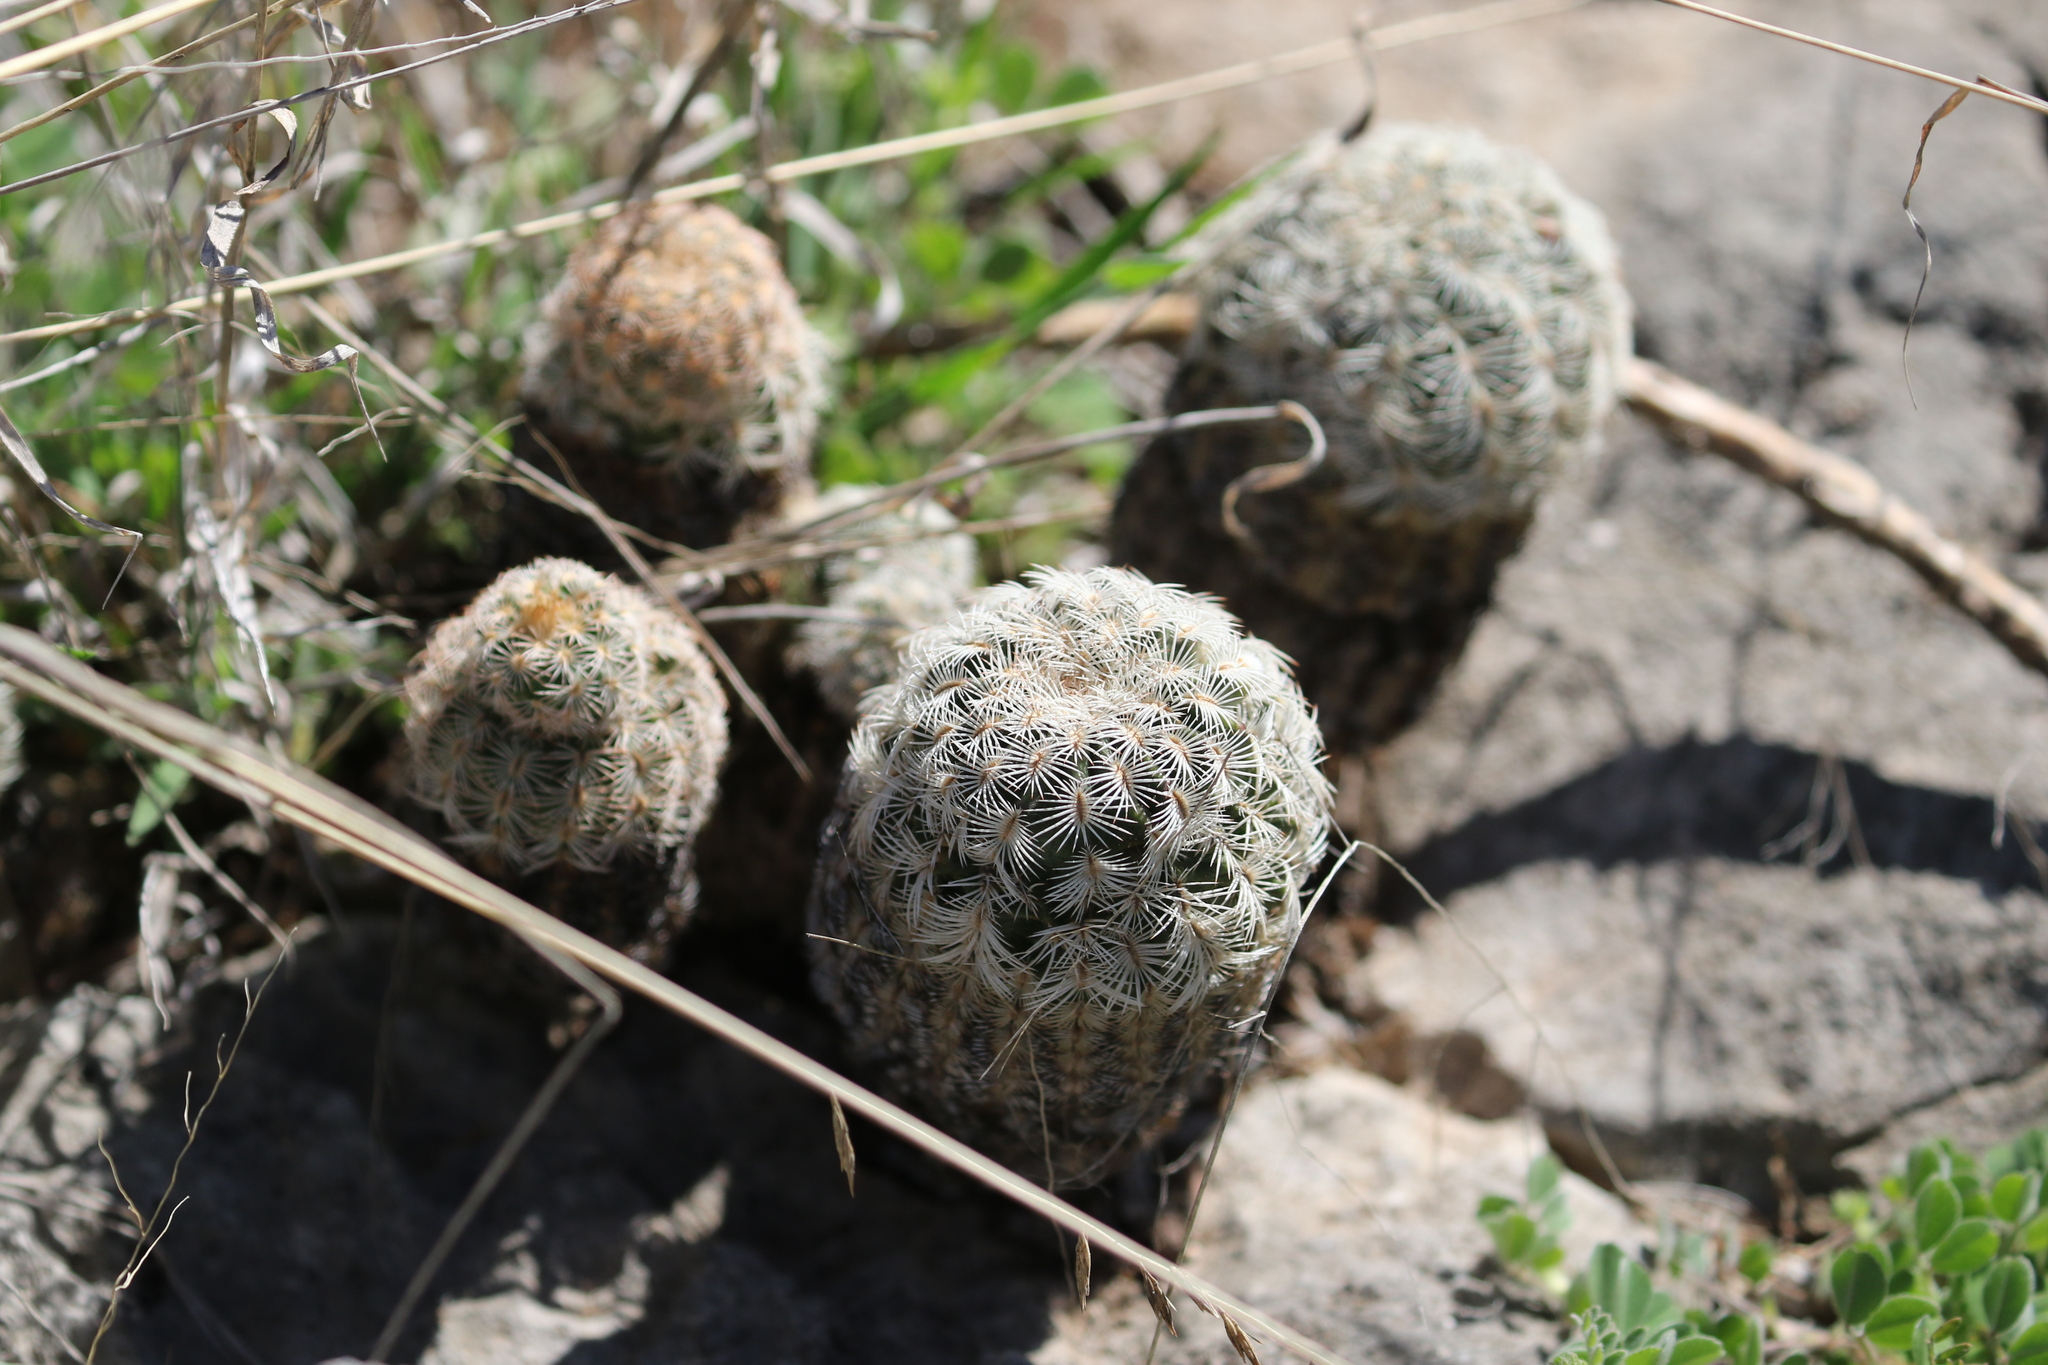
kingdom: Plantae
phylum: Tracheophyta
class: Magnoliopsida
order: Caryophyllales
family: Cactaceae
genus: Echinocereus
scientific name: Echinocereus reichenbachii
